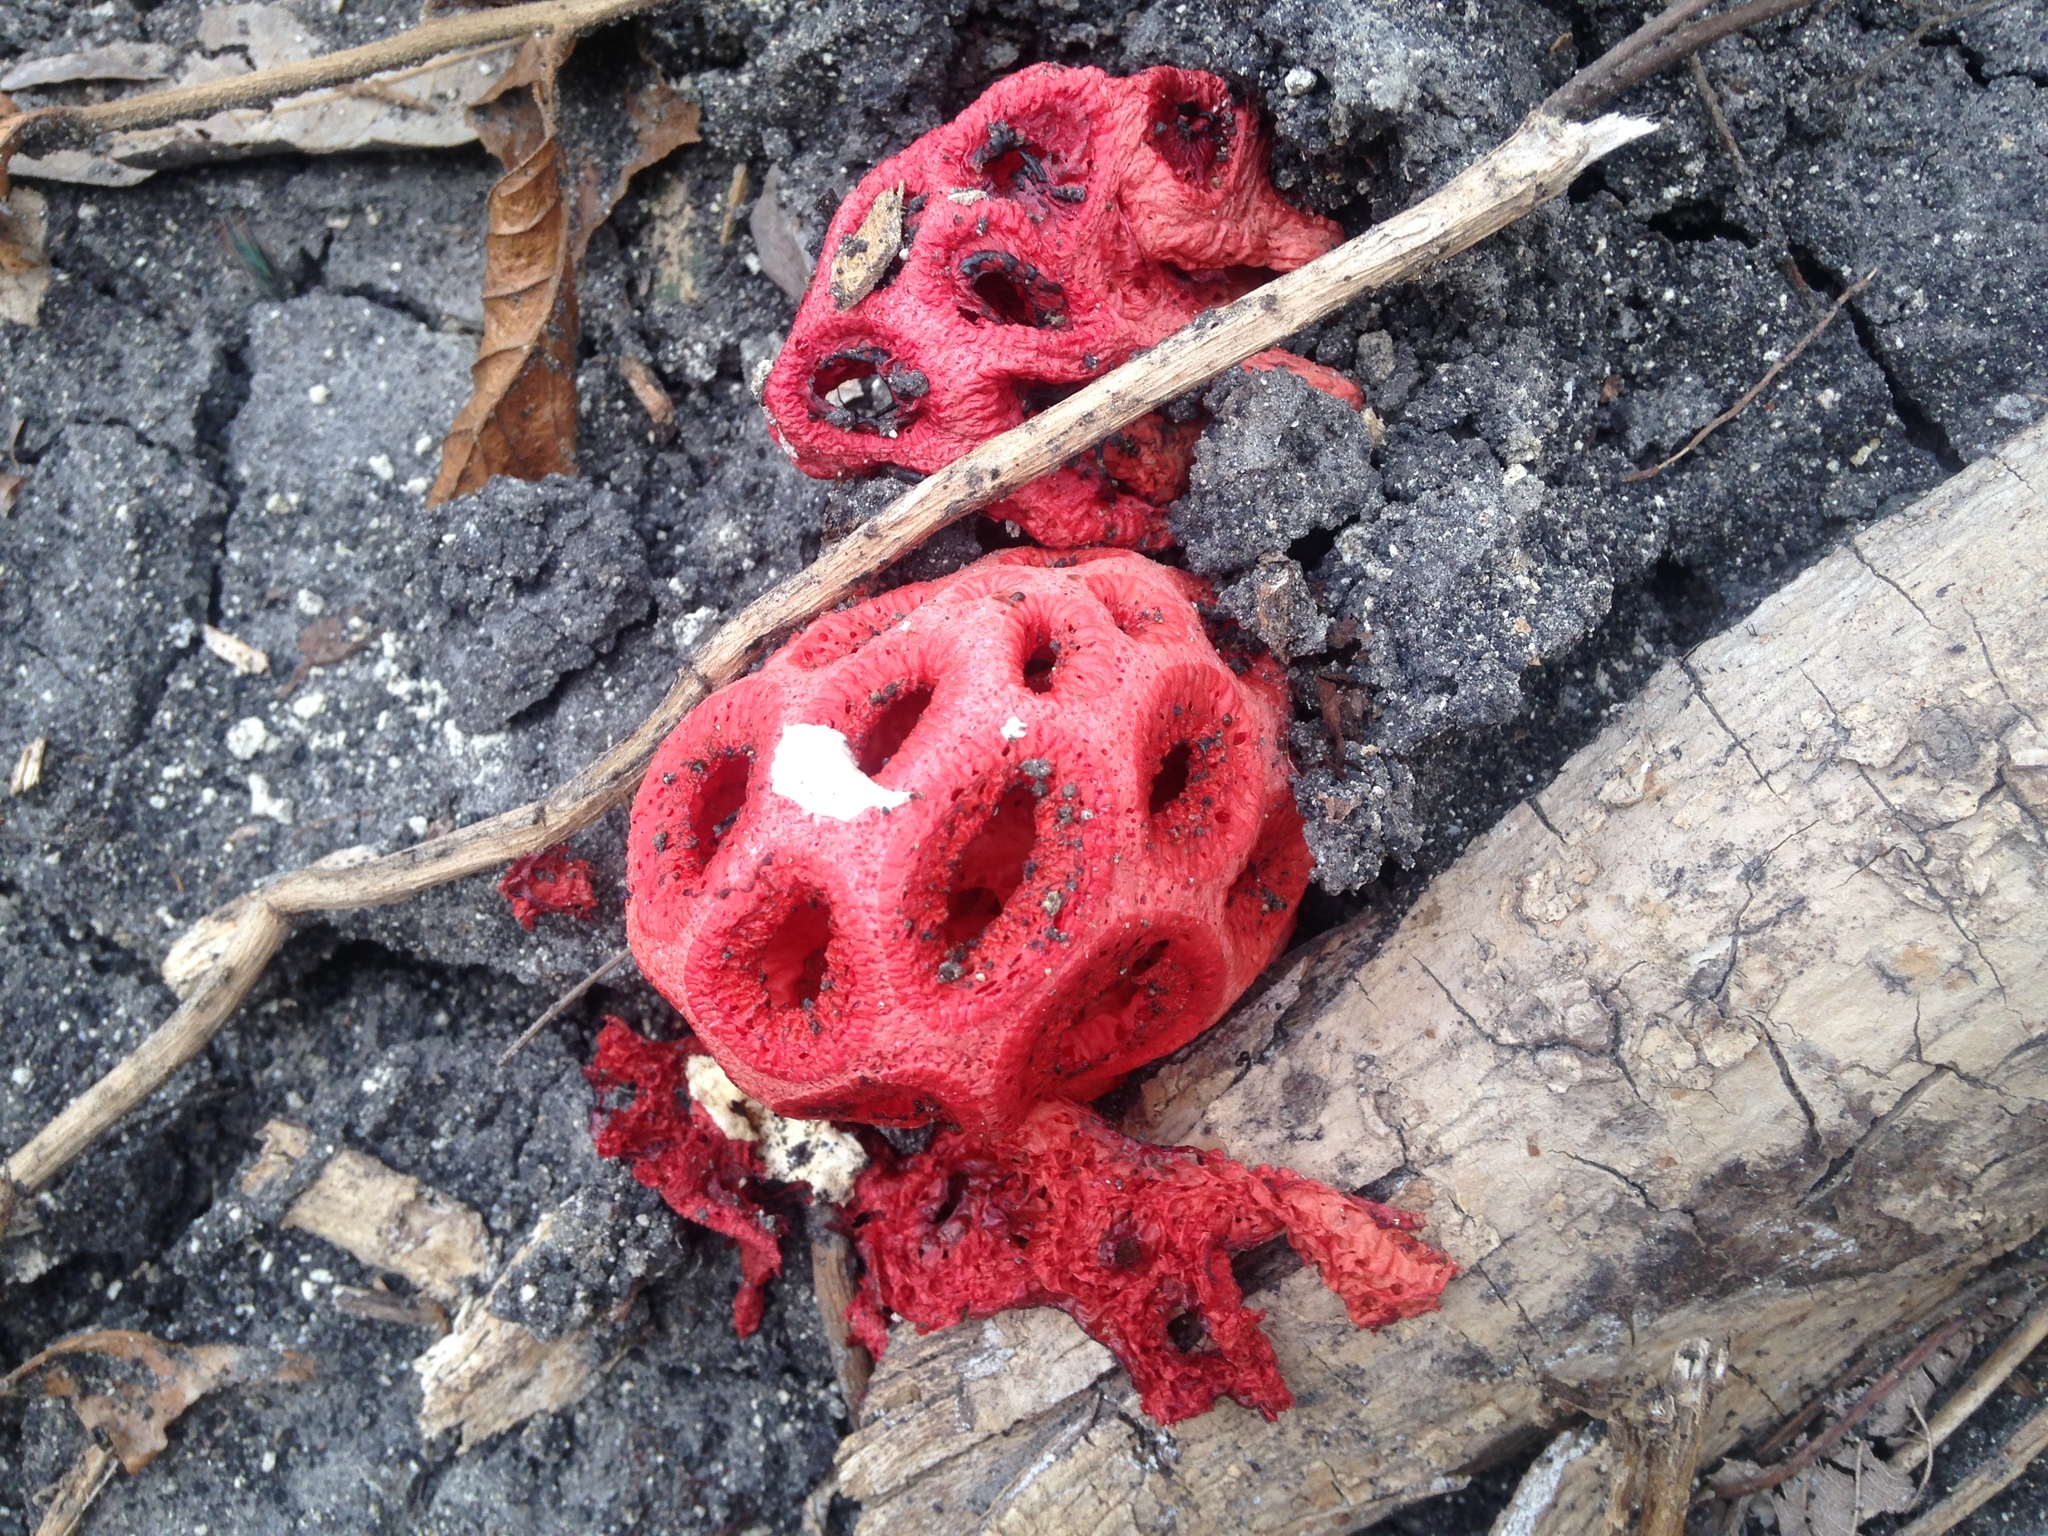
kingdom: Fungi
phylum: Basidiomycota
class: Agaricomycetes
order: Phallales
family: Phallaceae
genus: Clathrus
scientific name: Clathrus crispatus
